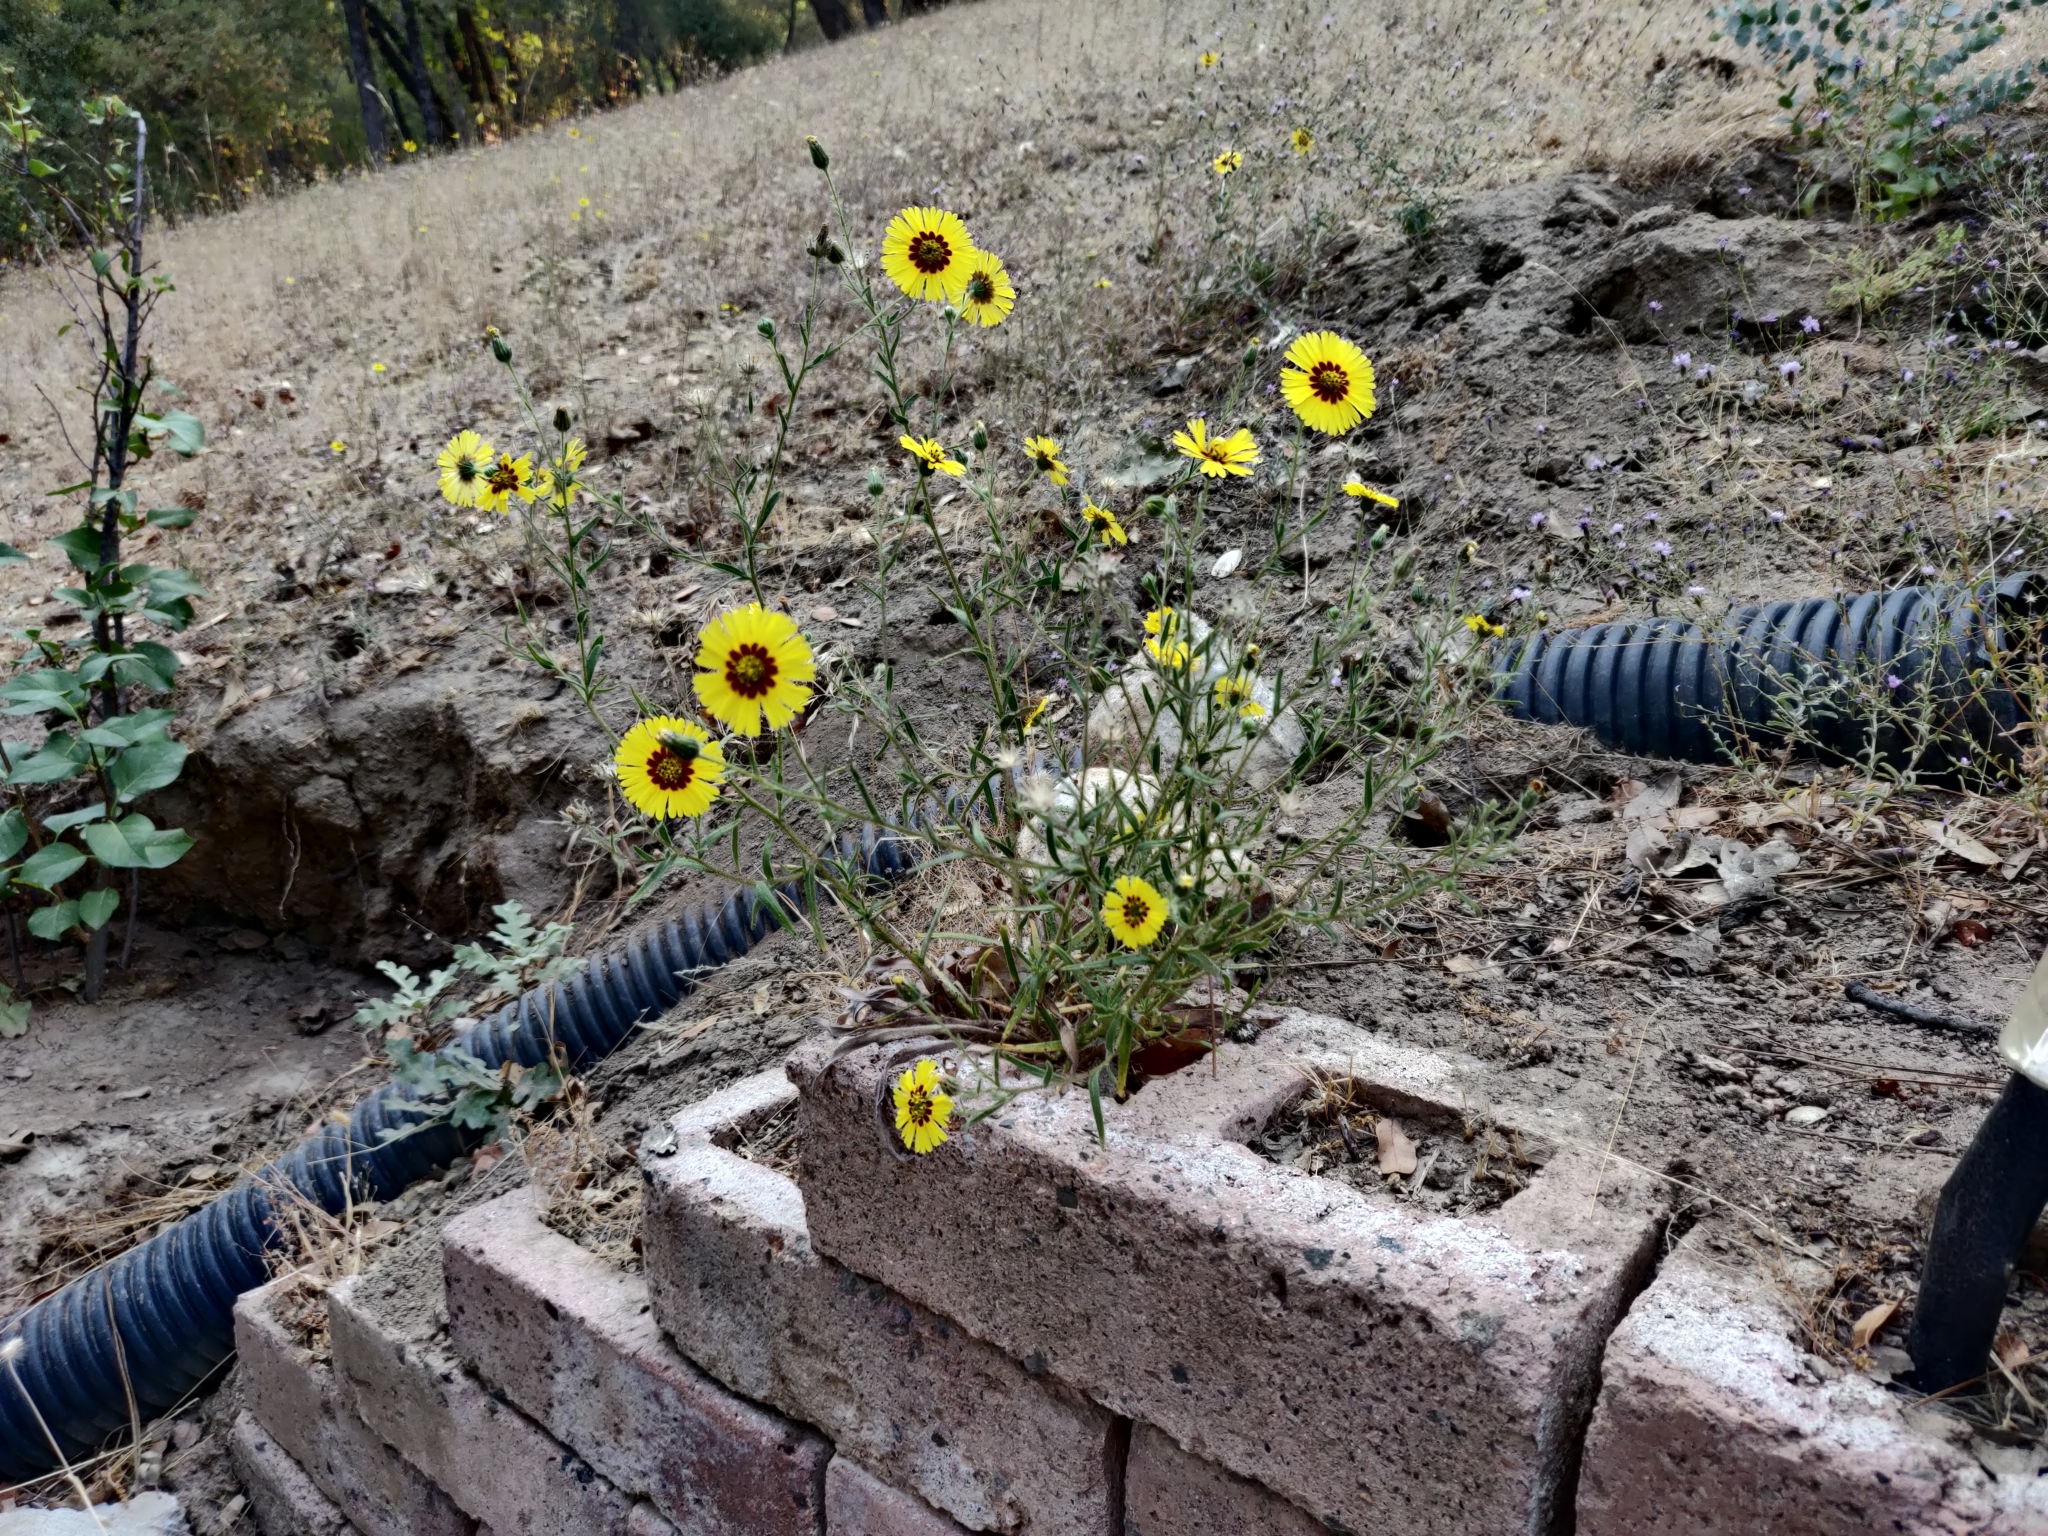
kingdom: Plantae
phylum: Tracheophyta
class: Magnoliopsida
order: Asterales
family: Asteraceae
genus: Madia
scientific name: Madia elegans
